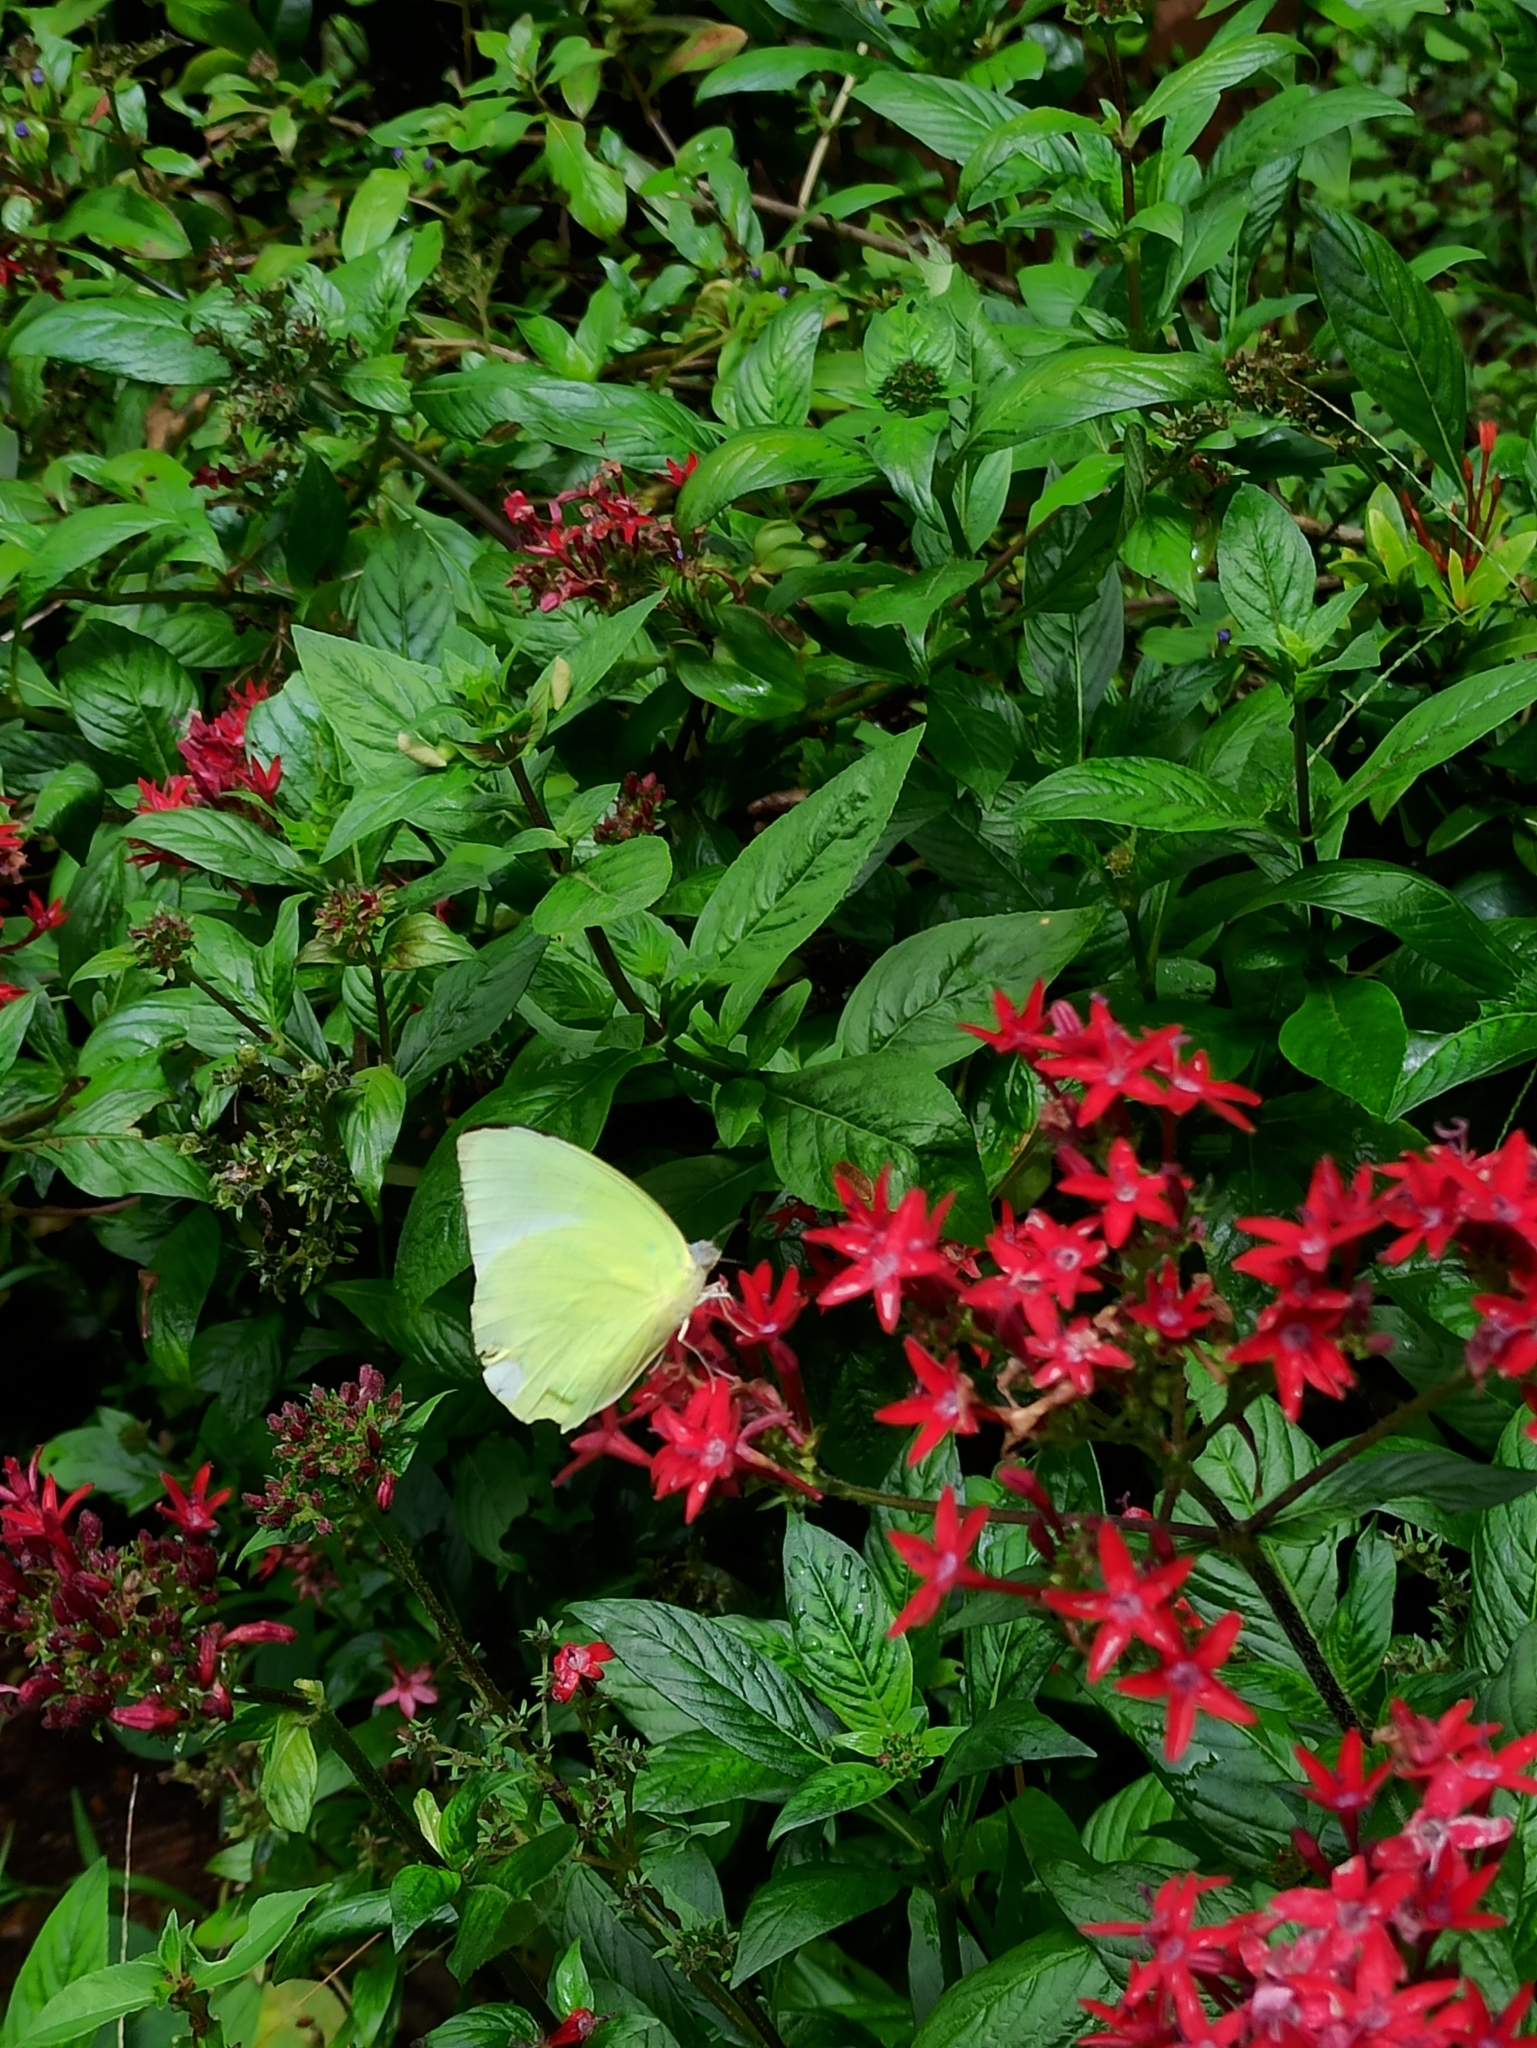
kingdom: Animalia
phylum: Arthropoda
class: Insecta
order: Lepidoptera
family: Pieridae
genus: Catopsilia
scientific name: Catopsilia pomona
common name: Common emigrant
